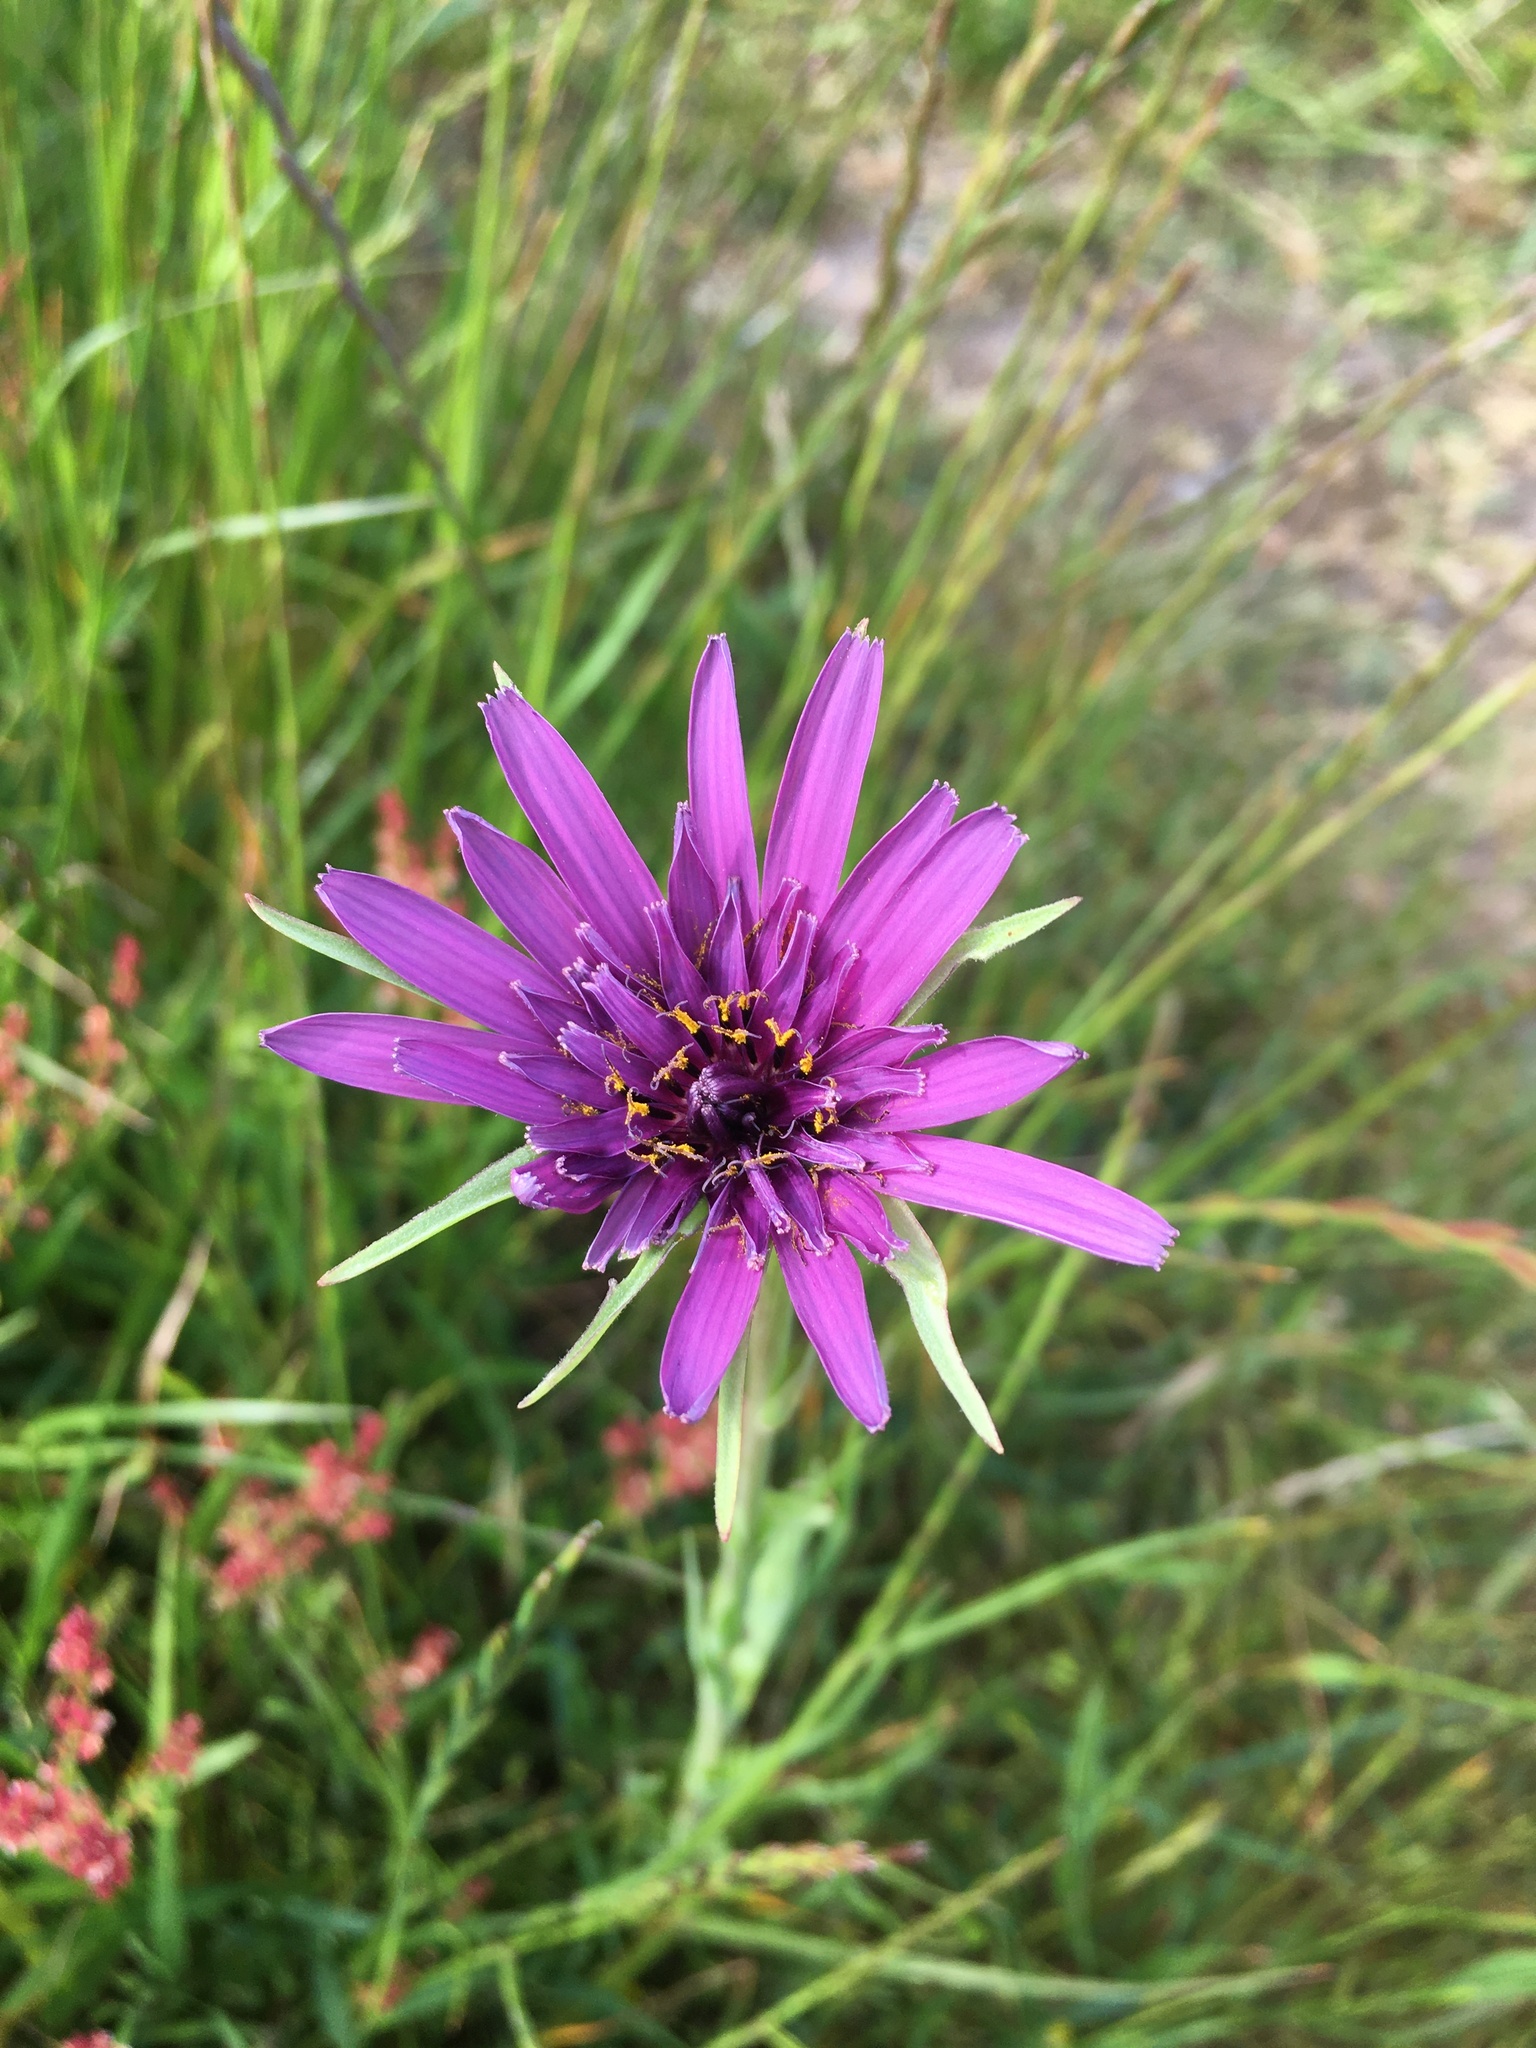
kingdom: Plantae
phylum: Tracheophyta
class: Magnoliopsida
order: Asterales
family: Asteraceae
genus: Tragopogon
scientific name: Tragopogon porrifolius
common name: Salsify
